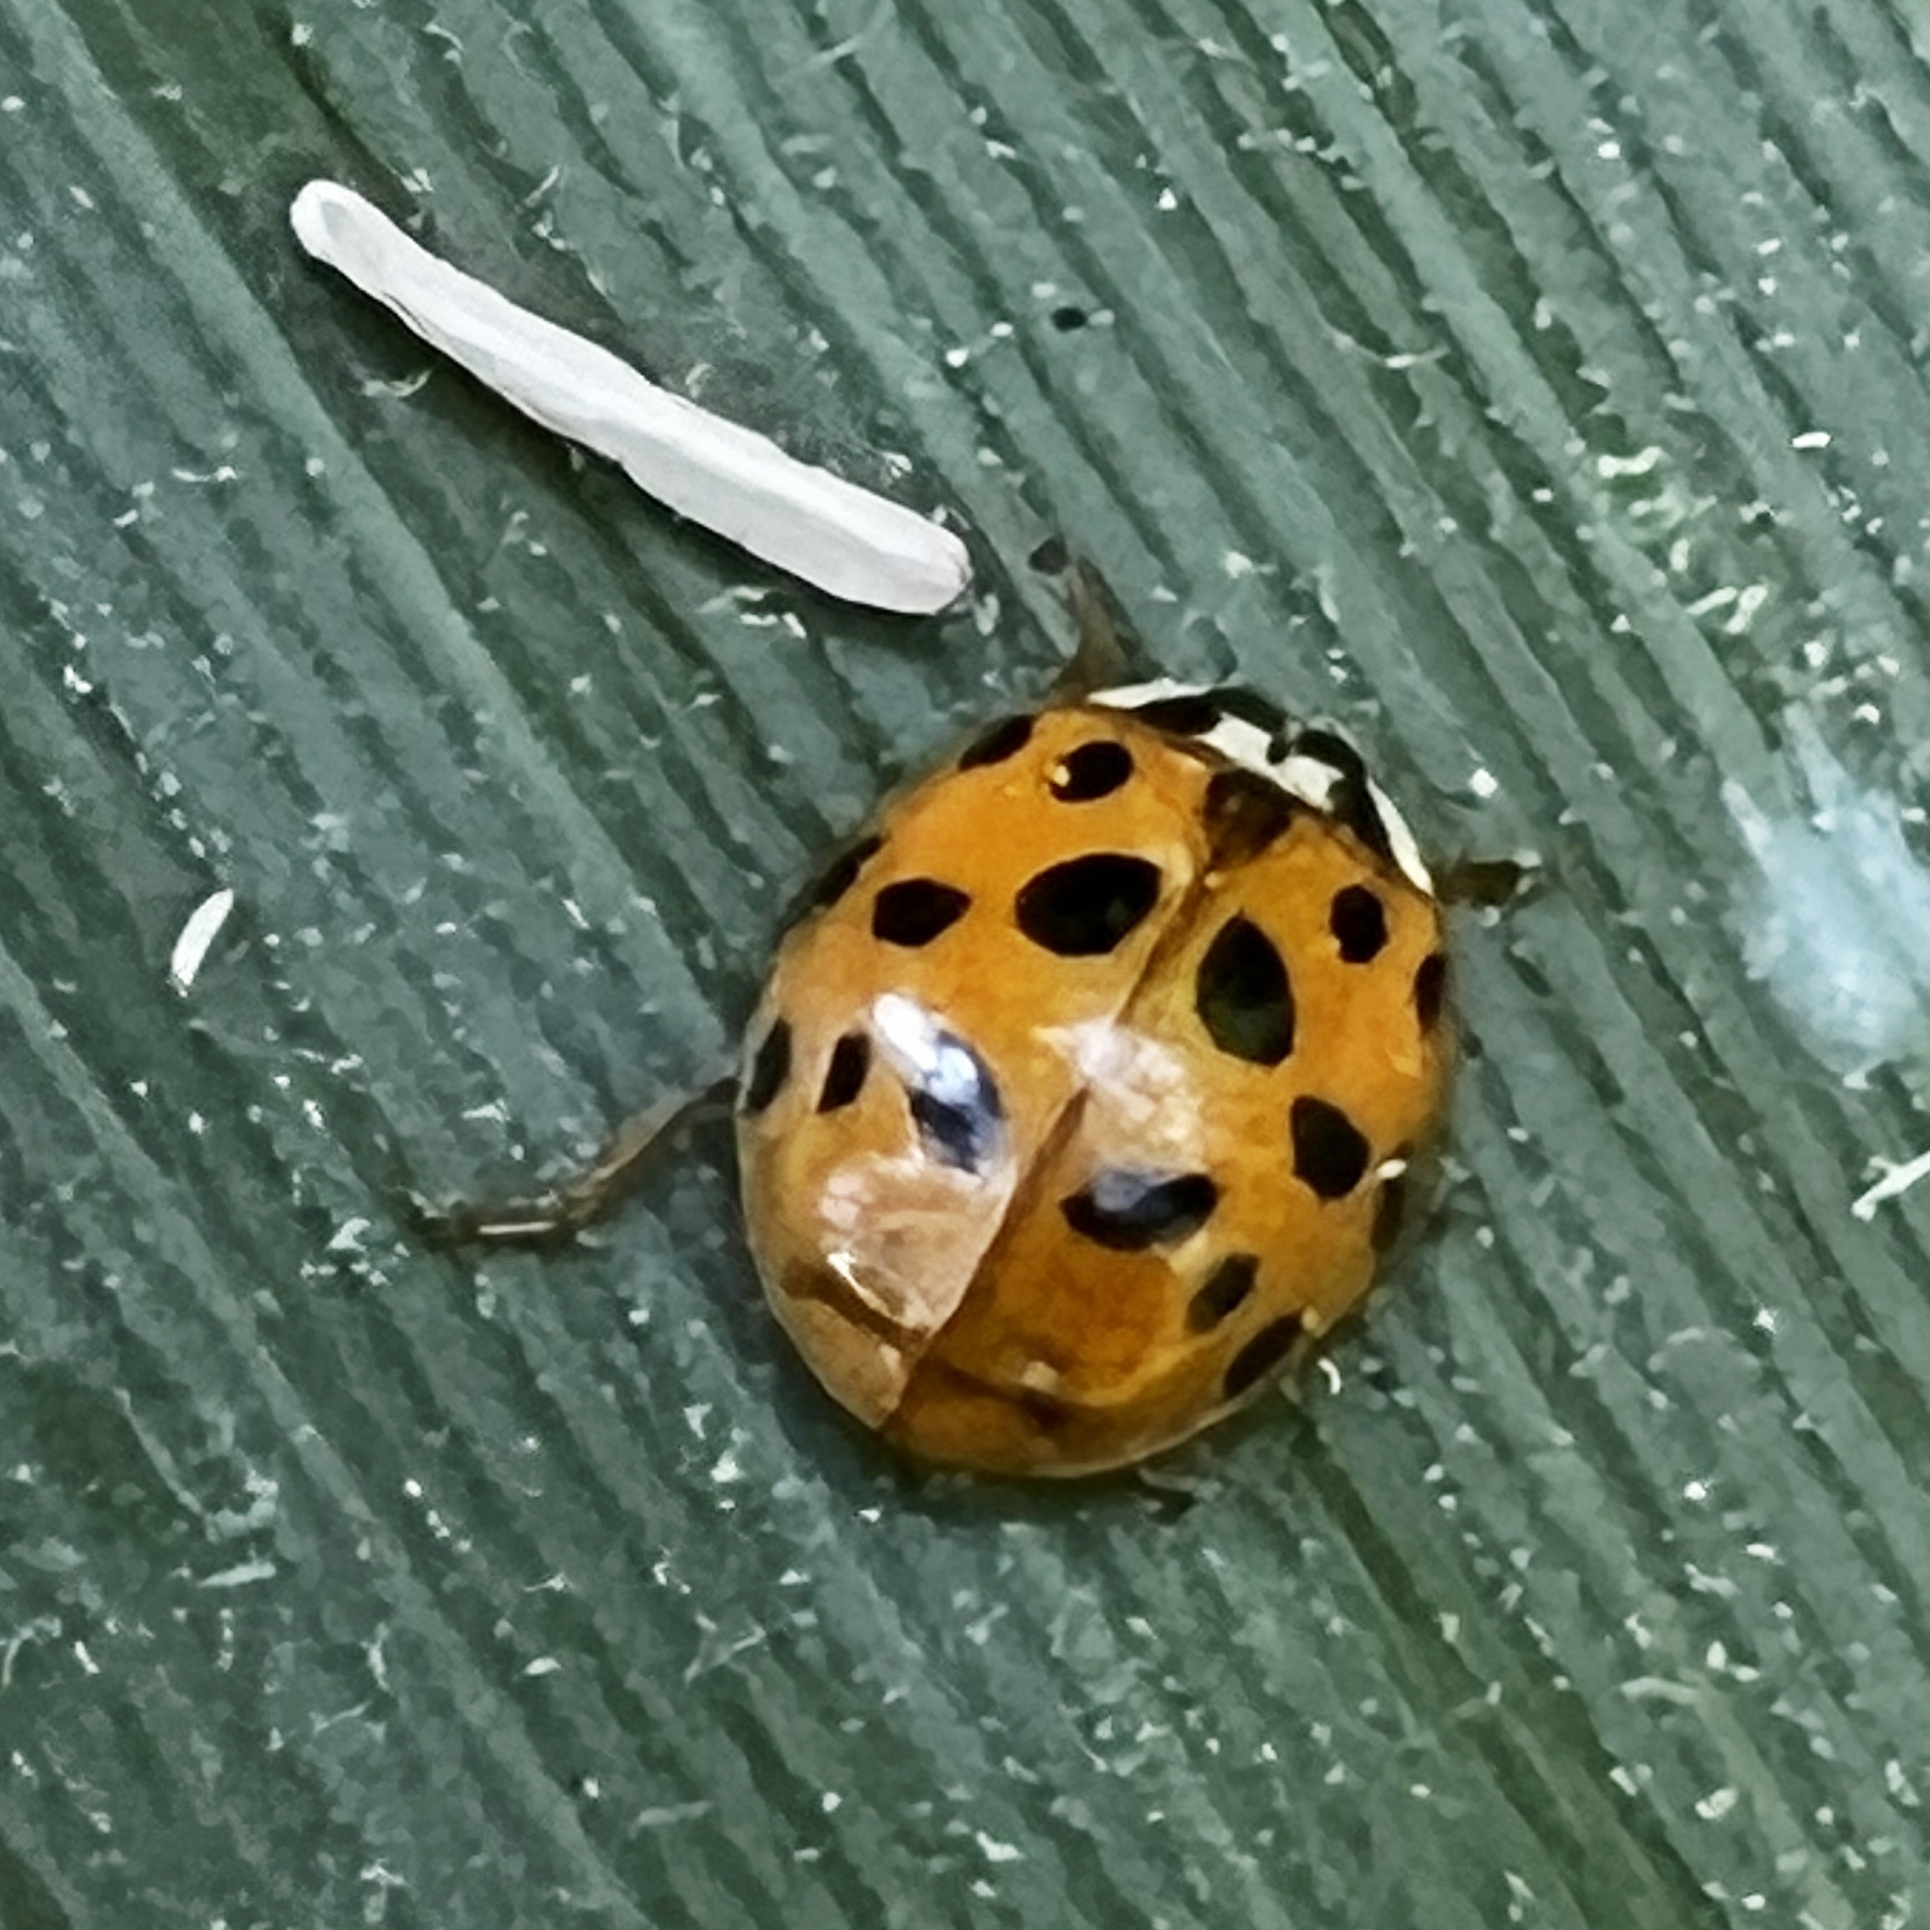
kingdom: Animalia
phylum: Arthropoda
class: Insecta
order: Coleoptera
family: Coccinellidae
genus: Harmonia
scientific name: Harmonia axyridis
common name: Harlequin ladybird
